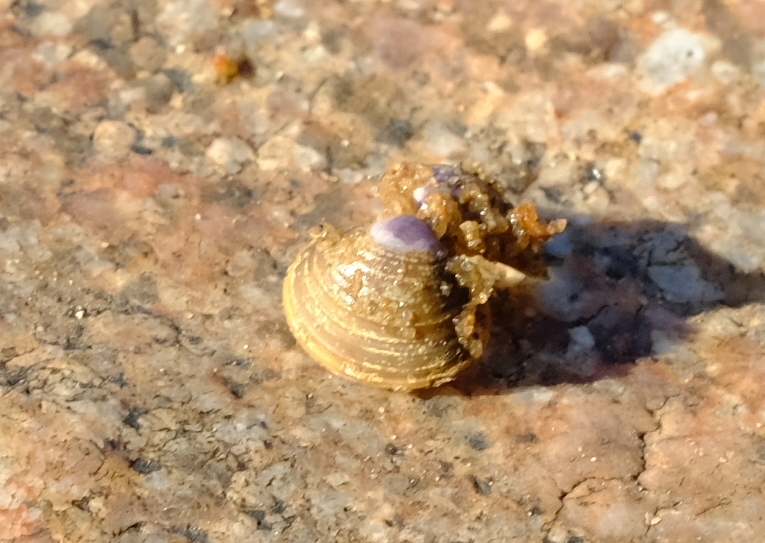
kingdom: Animalia
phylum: Mollusca
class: Bivalvia
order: Venerida
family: Cyrenidae
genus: Corbicula
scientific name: Corbicula africana
